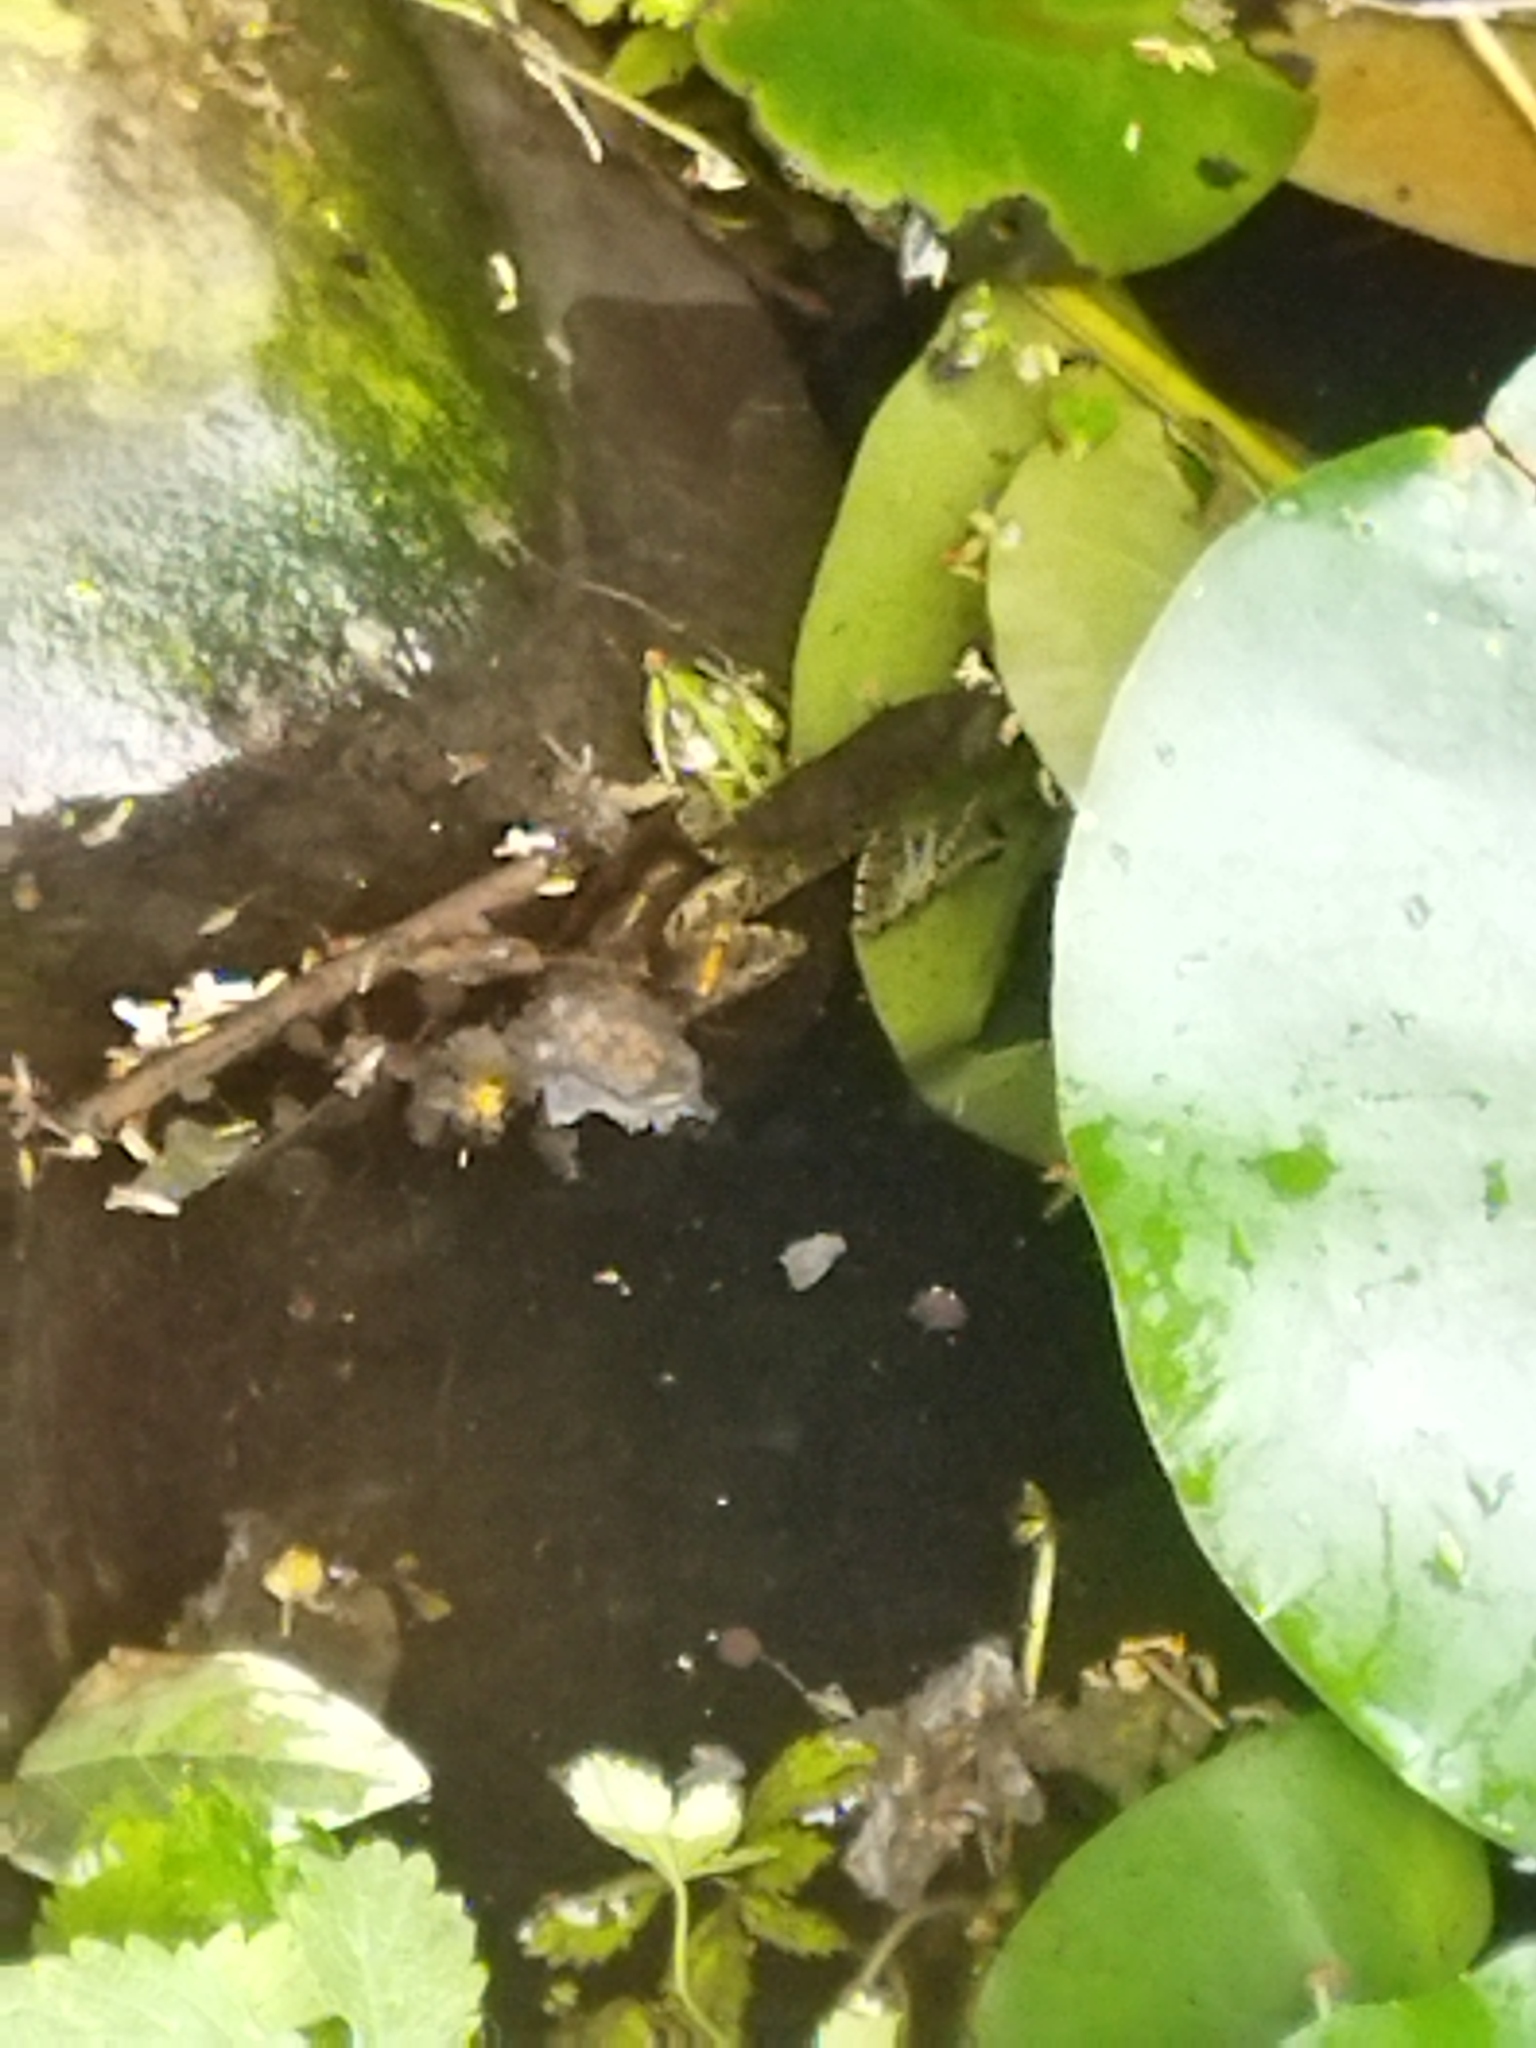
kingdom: Animalia
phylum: Chordata
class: Amphibia
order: Anura
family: Ranidae
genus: Pelophylax
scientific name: Pelophylax ridibundus
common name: Marsh frog
